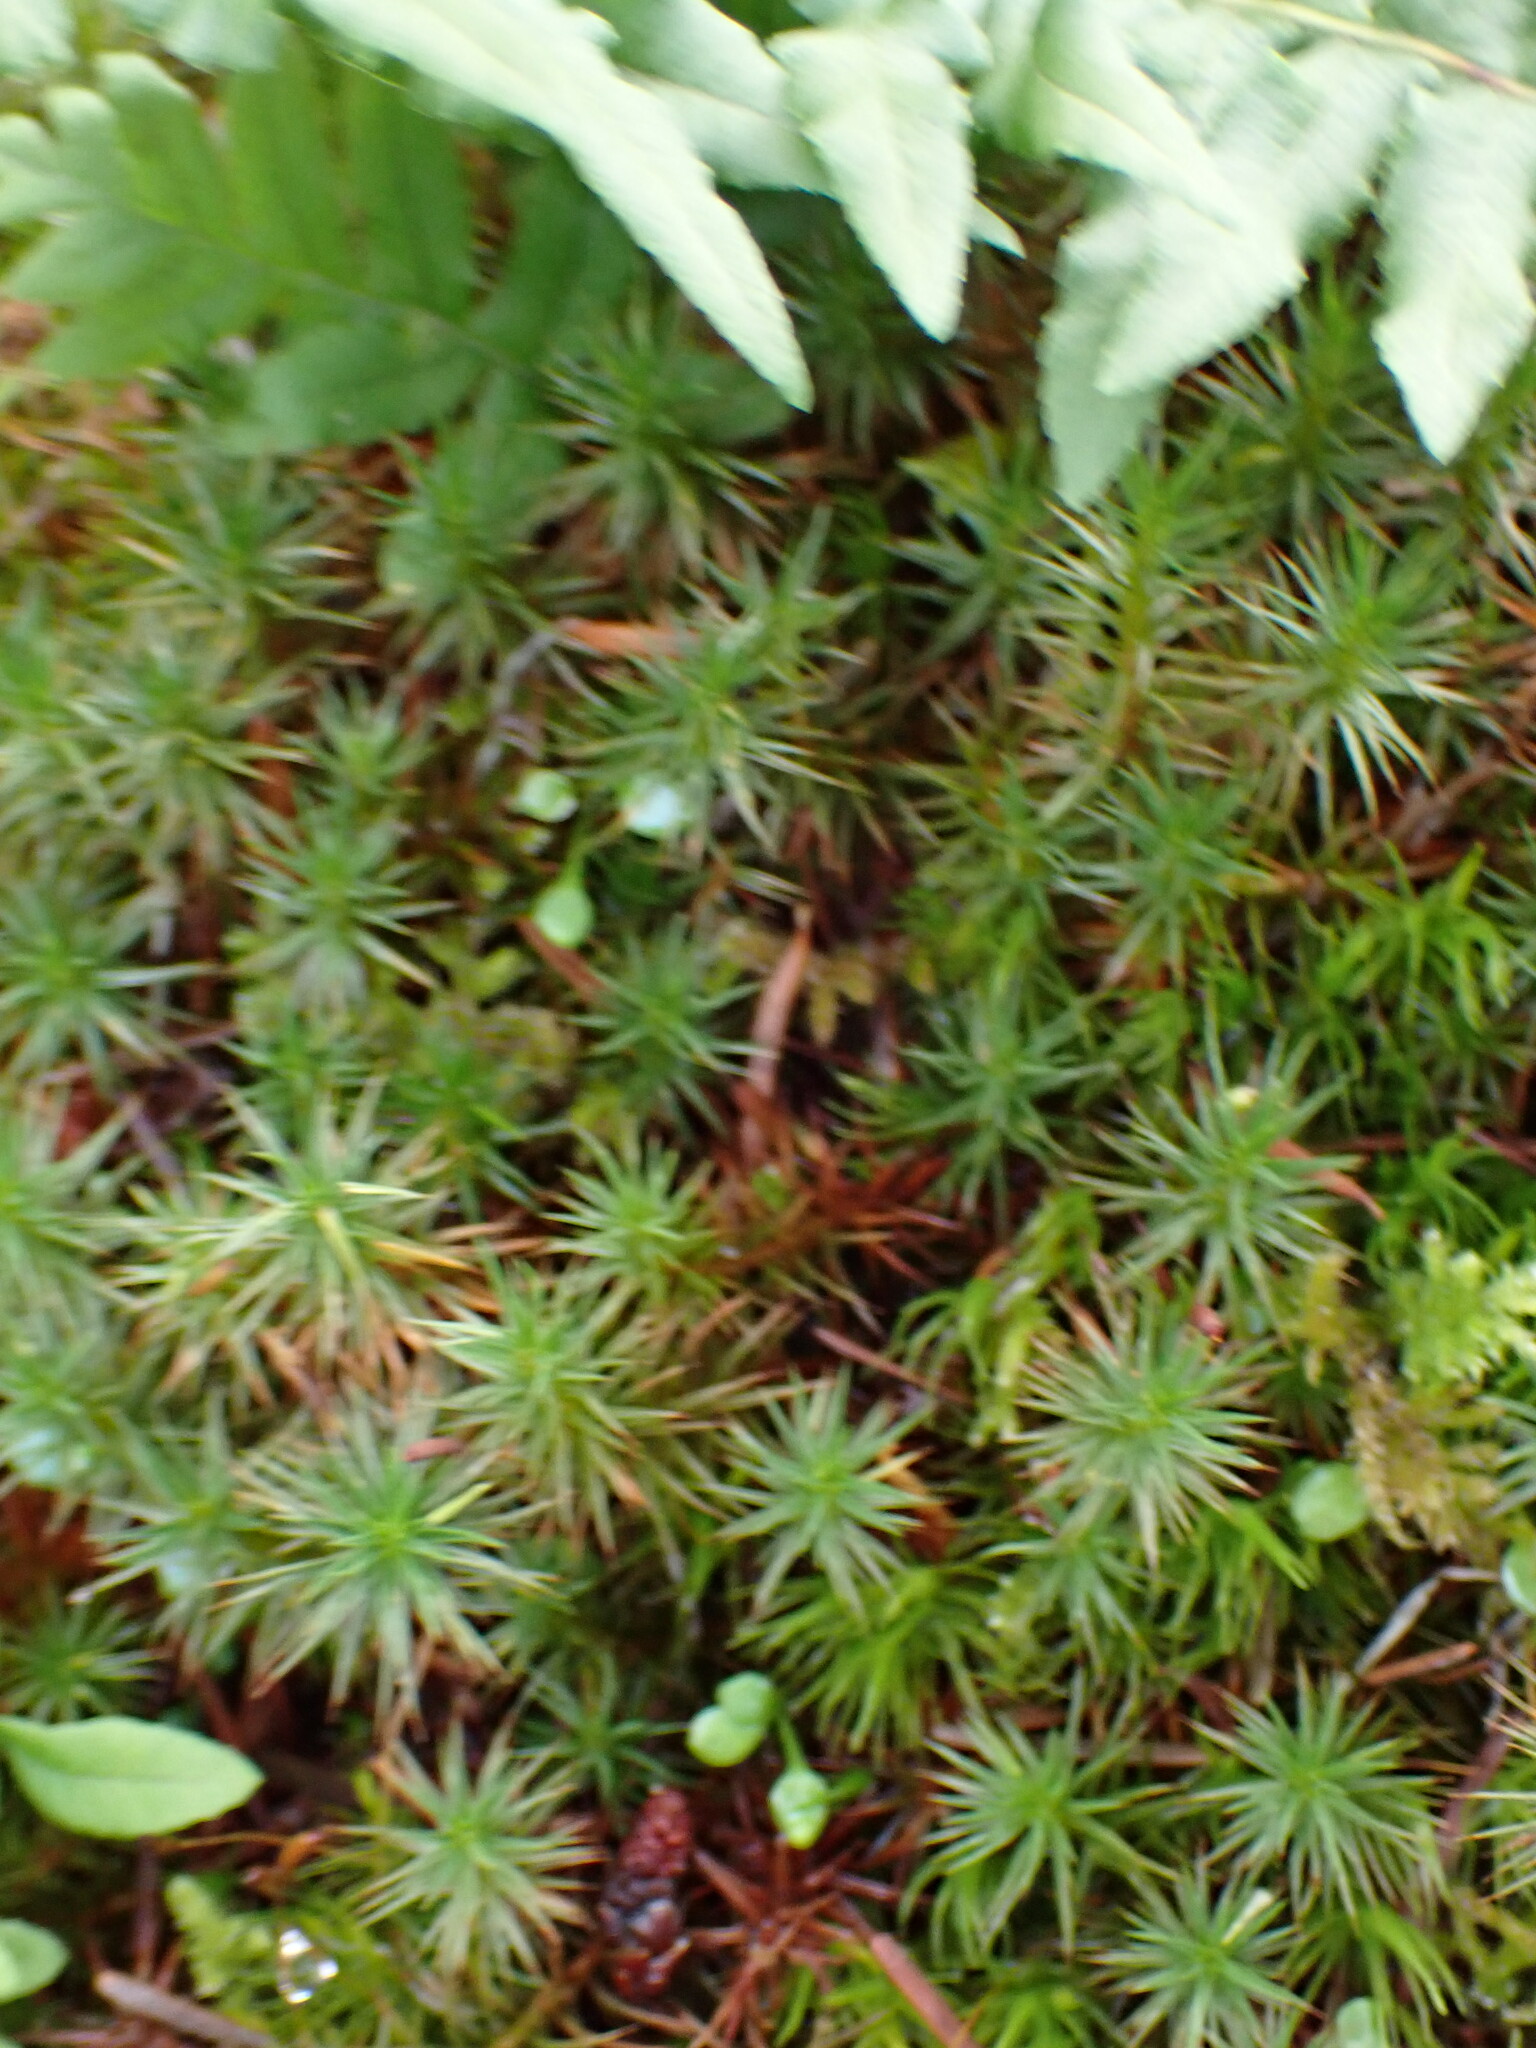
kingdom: Plantae
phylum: Bryophyta
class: Polytrichopsida
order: Polytrichales
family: Polytrichaceae
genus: Polytrichum
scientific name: Polytrichum juniperinum
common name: Juniper haircap moss
